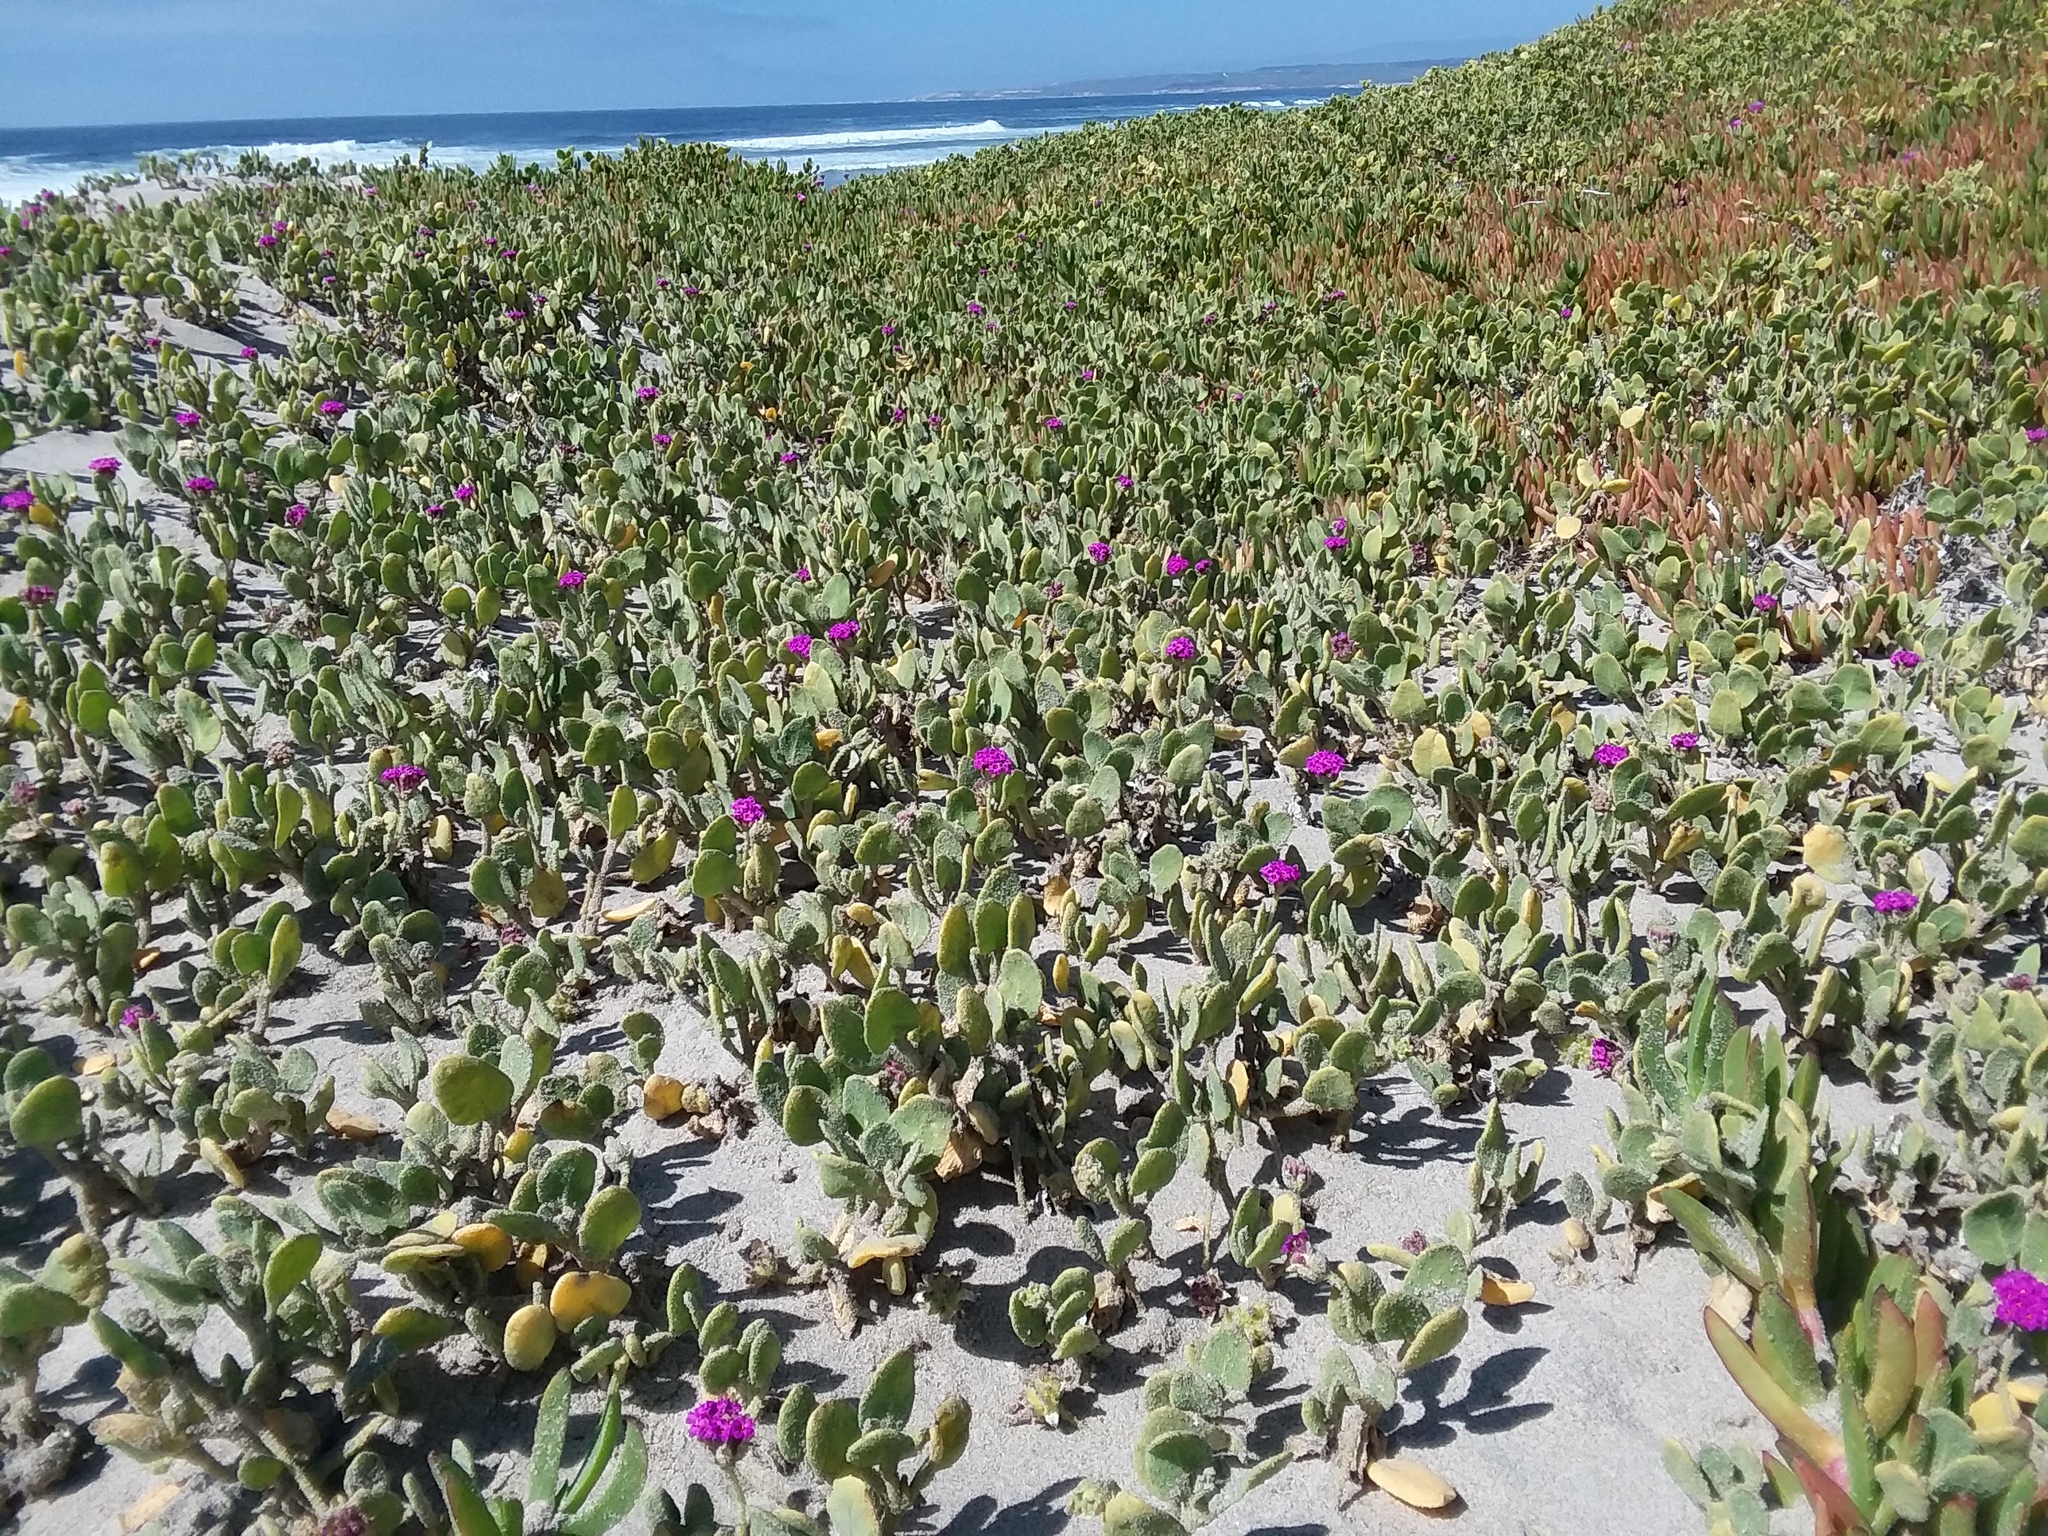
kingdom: Plantae
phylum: Tracheophyta
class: Magnoliopsida
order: Caryophyllales
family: Nyctaginaceae
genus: Abronia
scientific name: Abronia maritima
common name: Red sand-verbena
